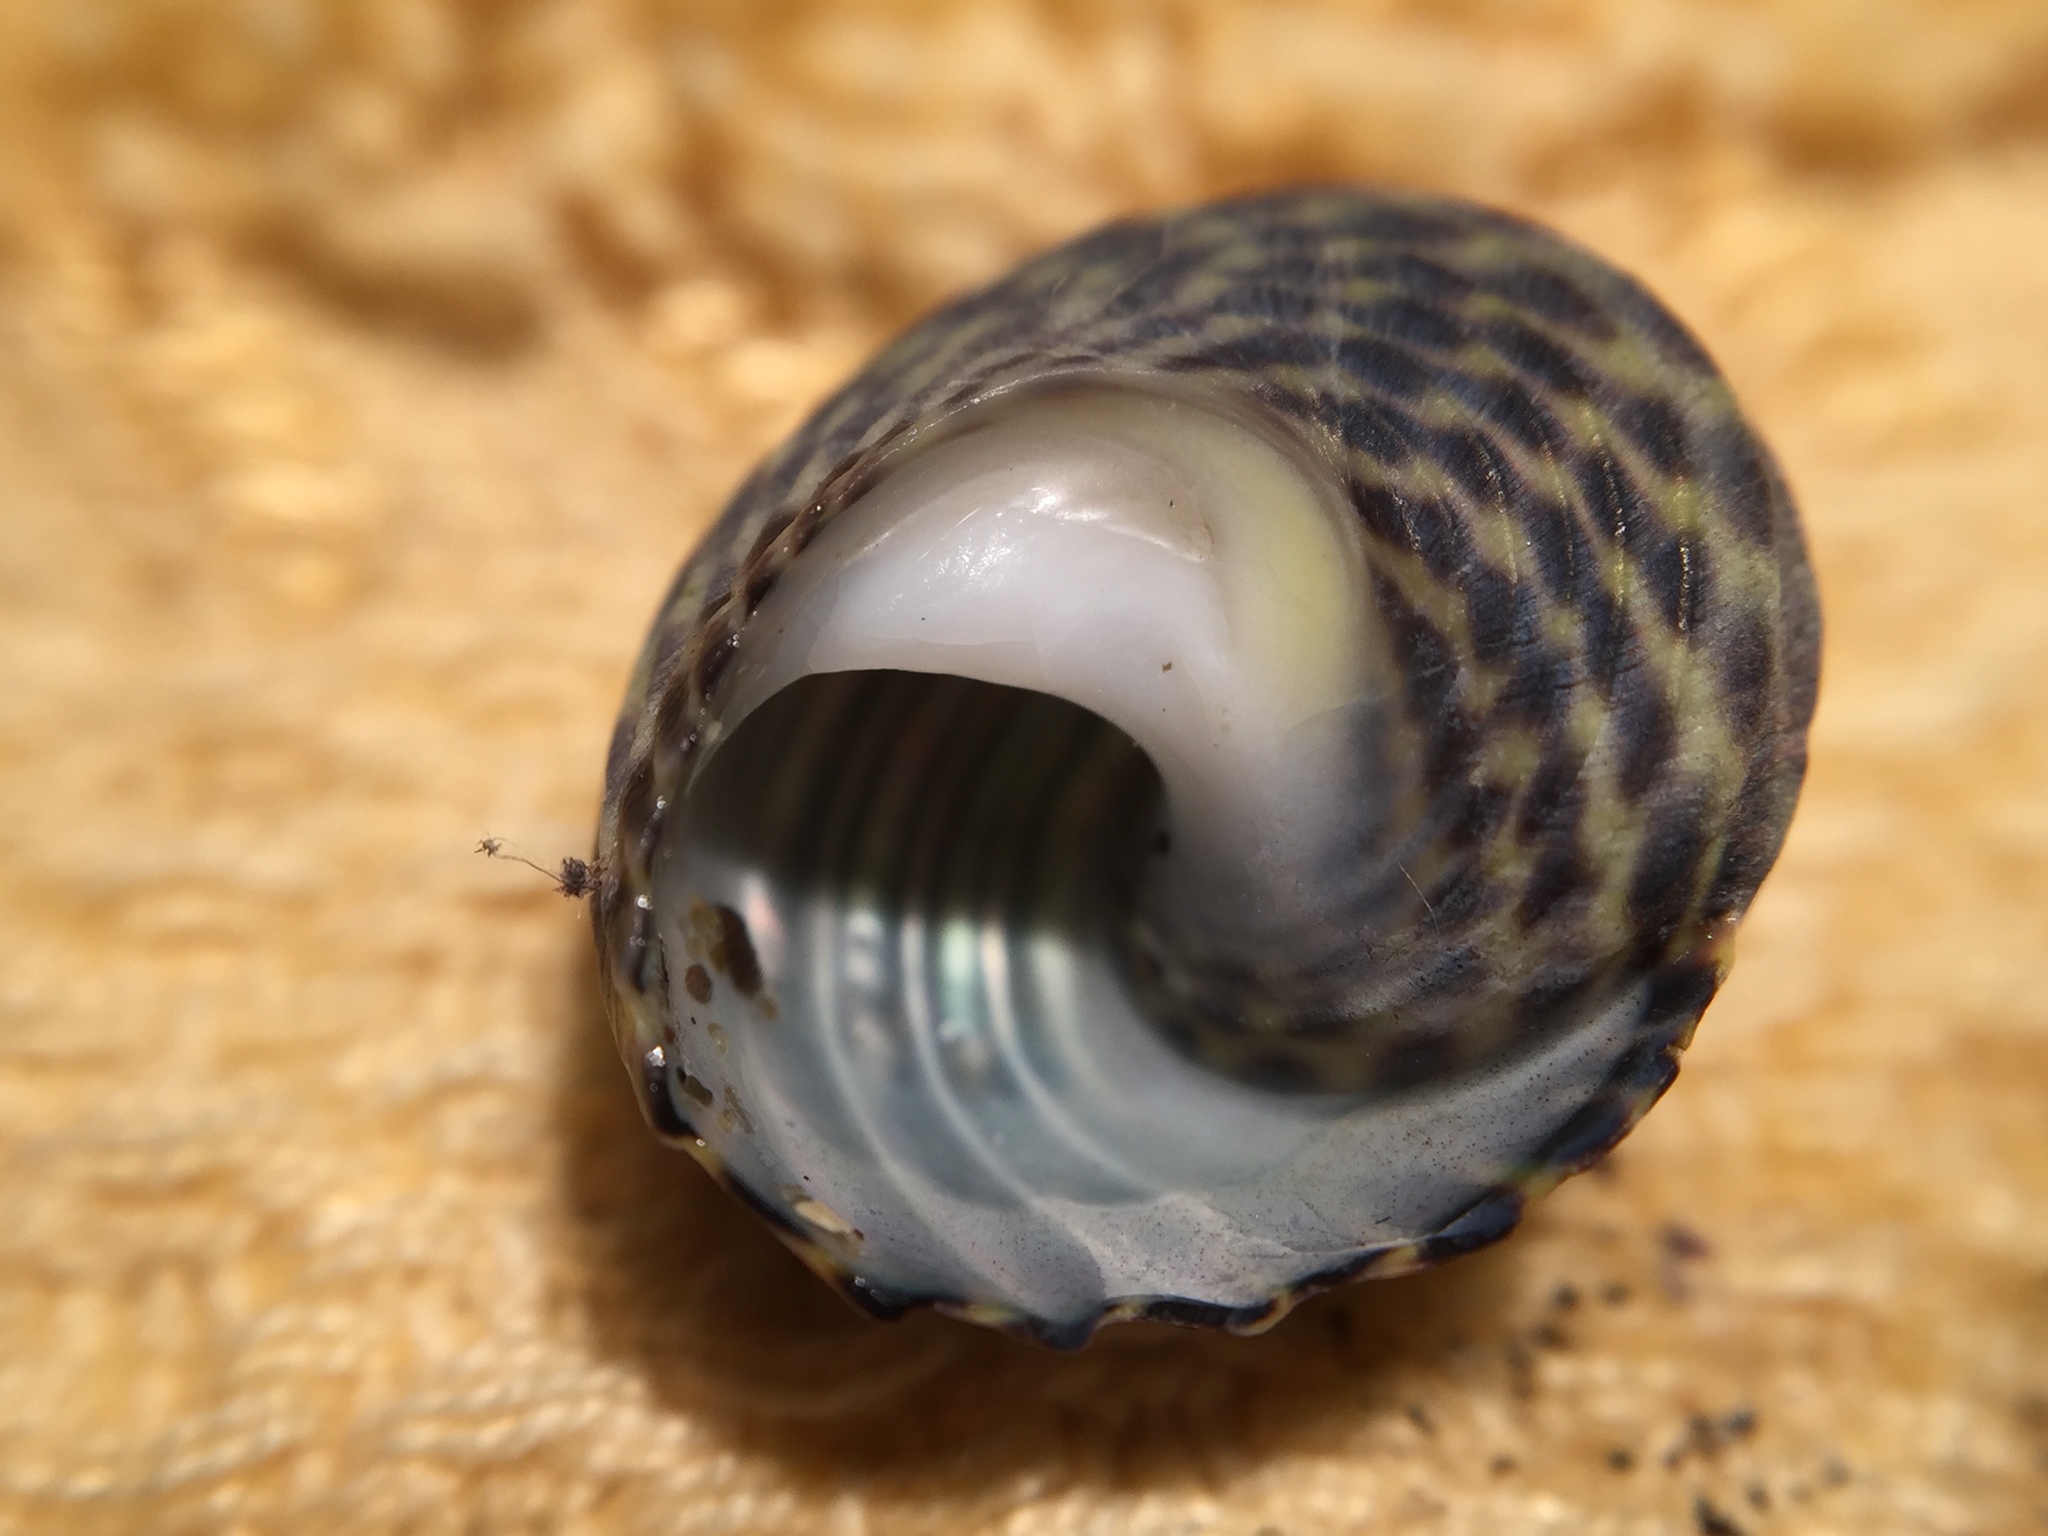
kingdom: Animalia
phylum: Mollusca
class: Gastropoda
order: Trochida
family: Trochidae
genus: Diloma
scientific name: Diloma subrostratum
